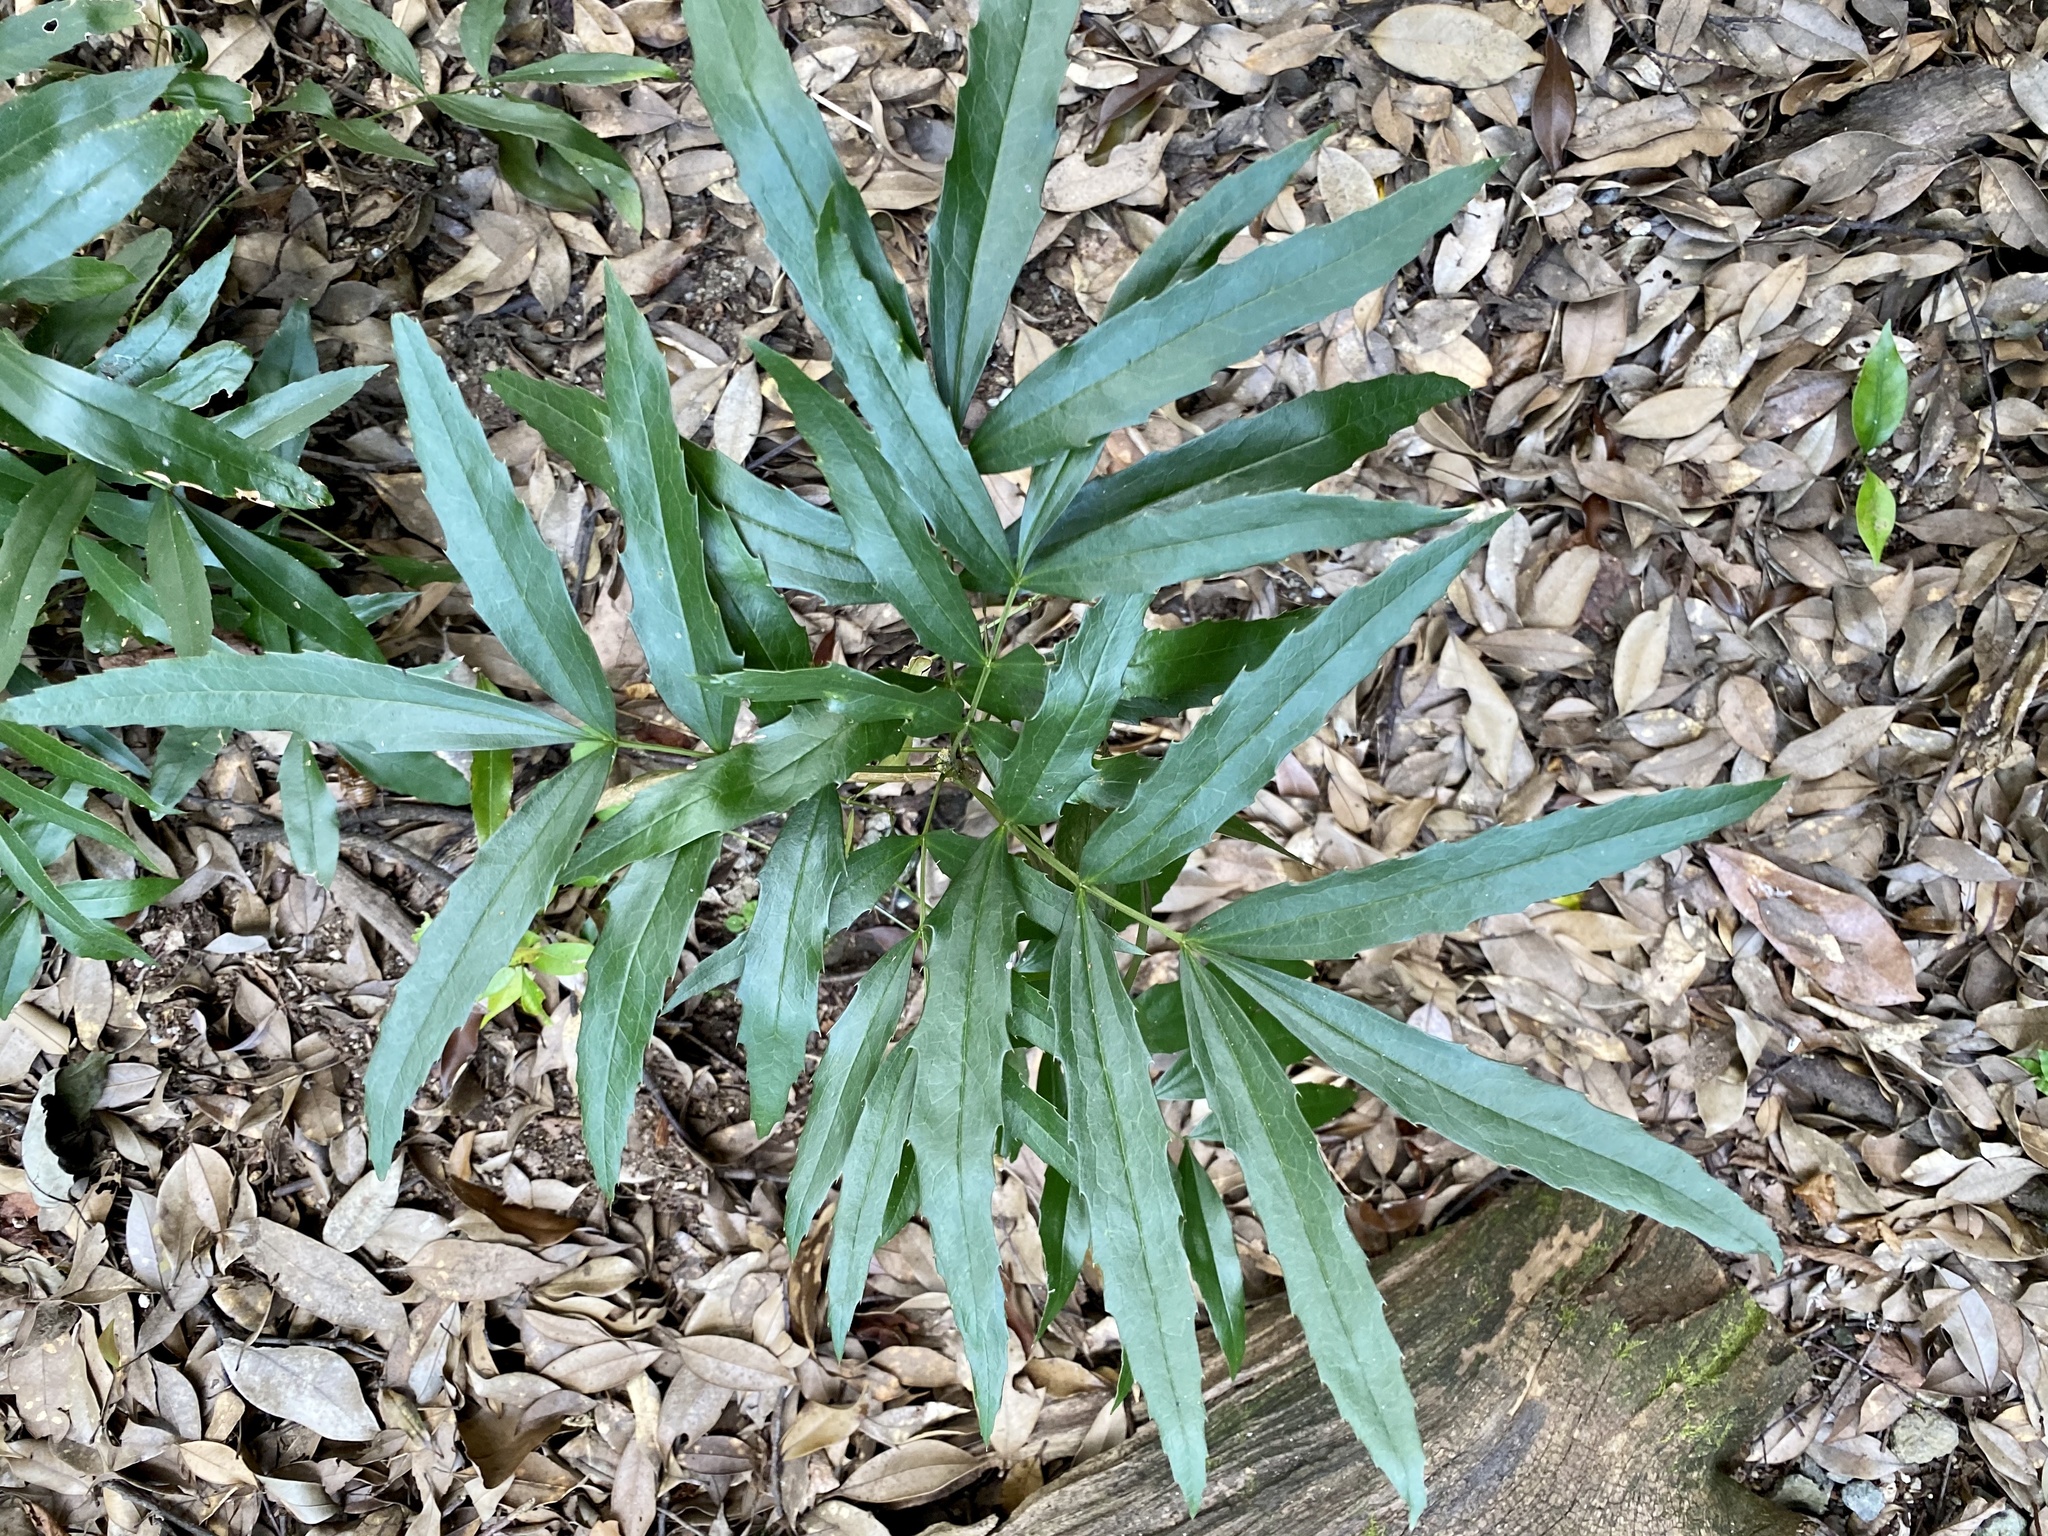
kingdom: Plantae
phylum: Tracheophyta
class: Magnoliopsida
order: Ranunculales
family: Berberidaceae
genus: Mahonia
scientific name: Mahonia fortunei
